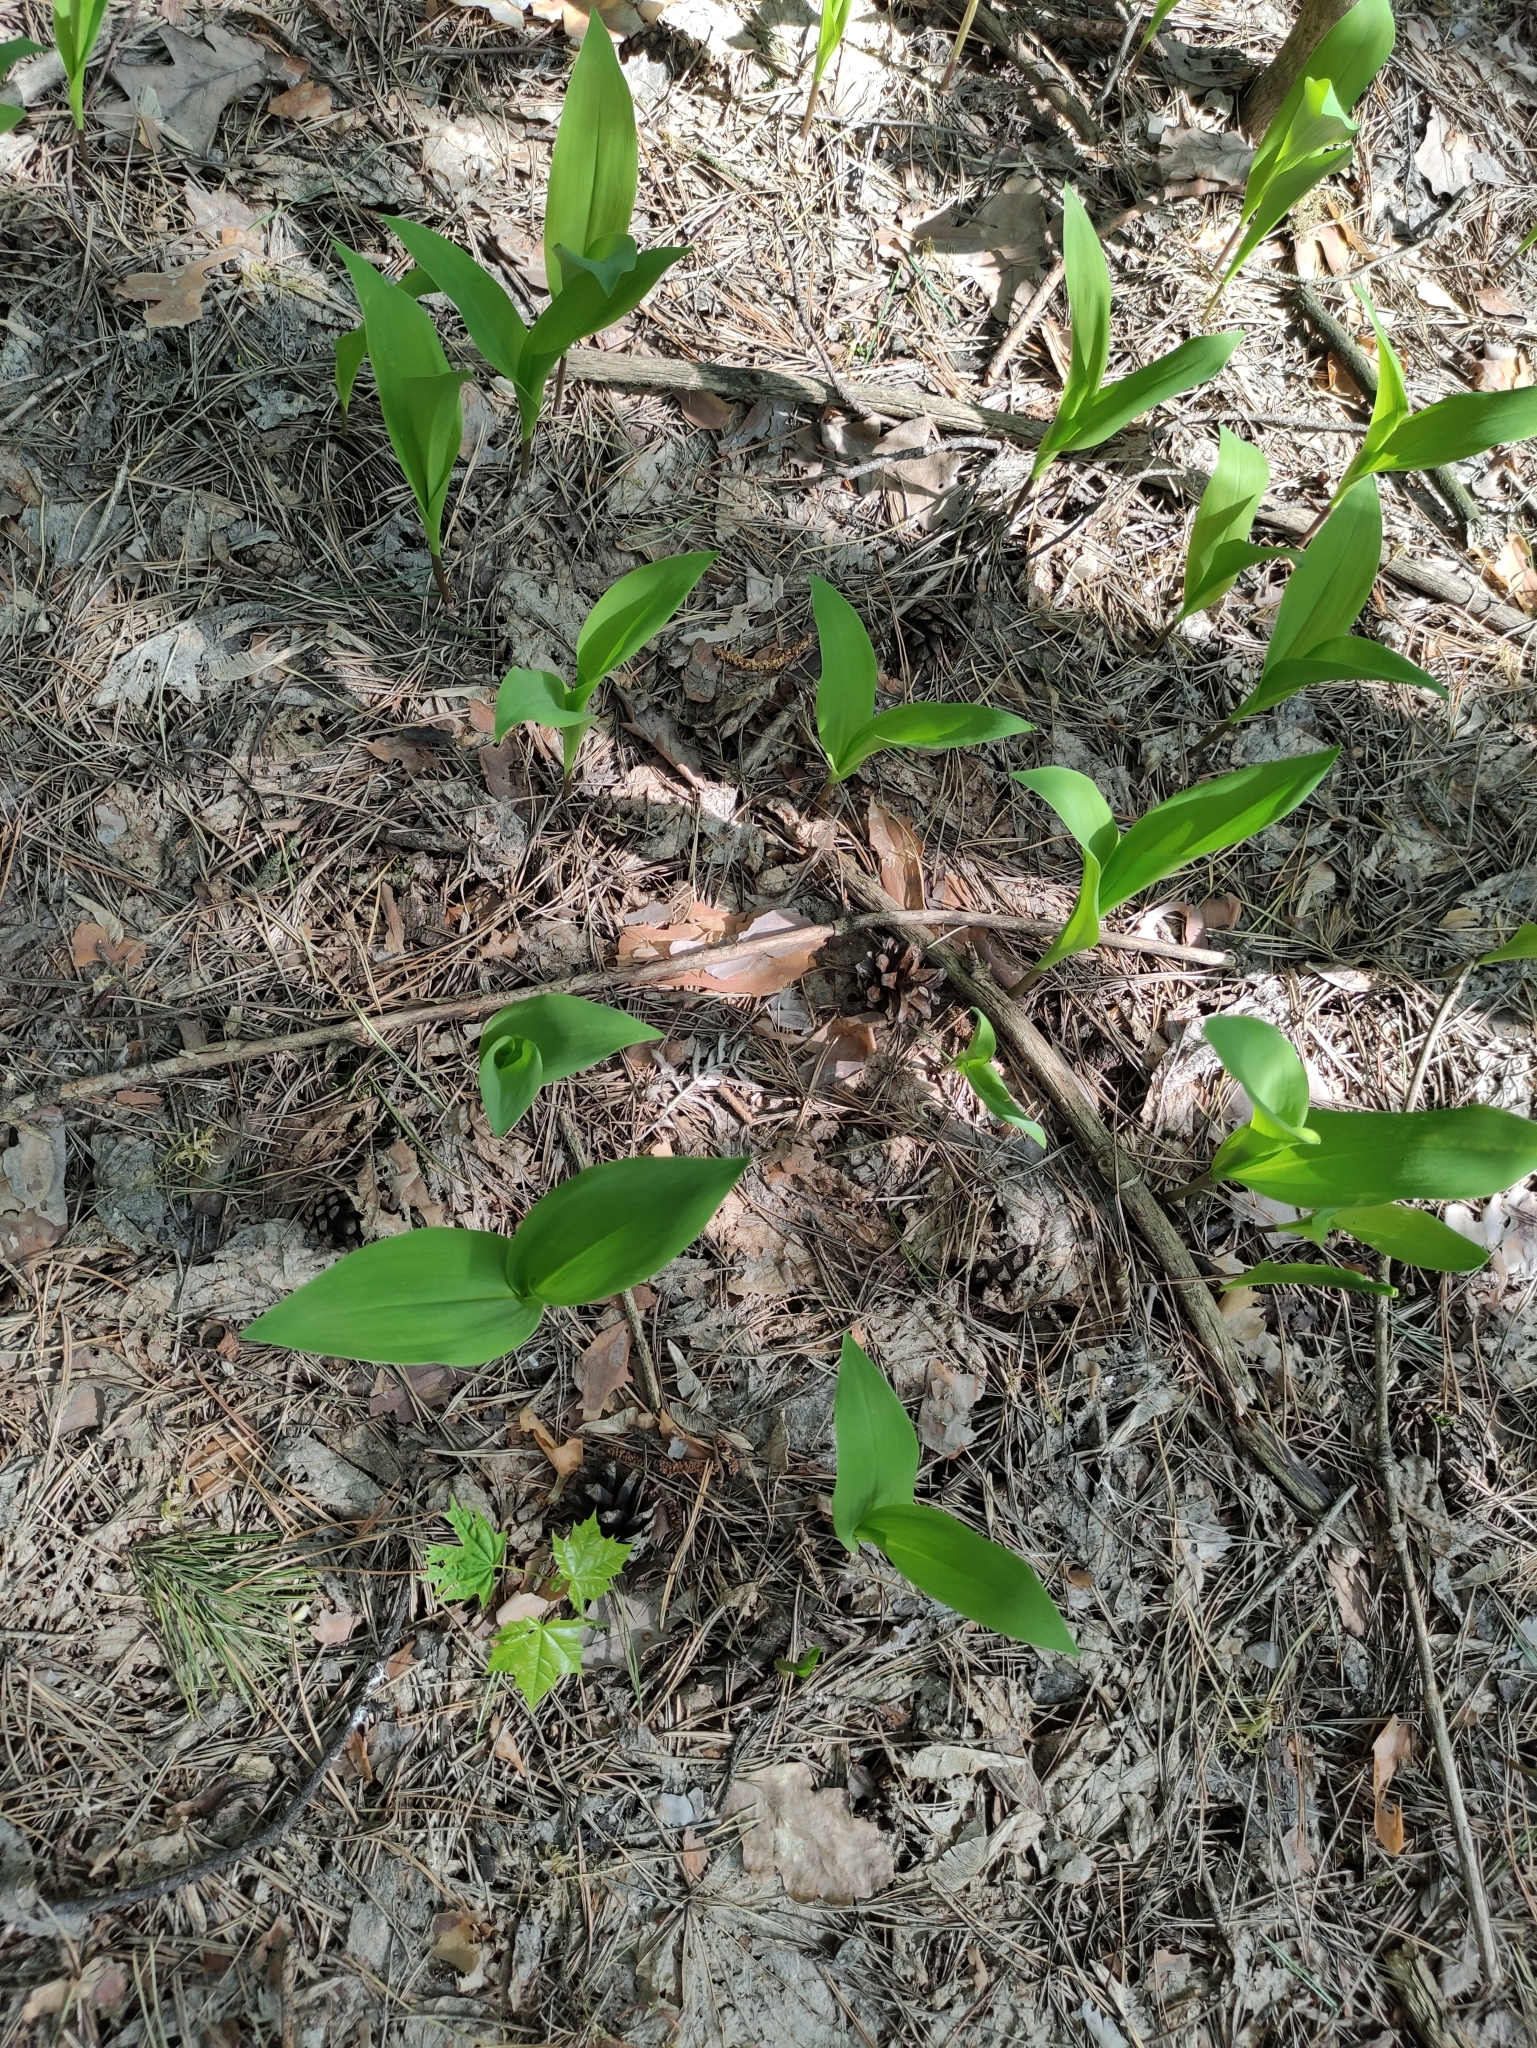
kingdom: Plantae
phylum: Tracheophyta
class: Liliopsida
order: Asparagales
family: Asparagaceae
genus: Convallaria
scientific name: Convallaria majalis
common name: Lily-of-the-valley
